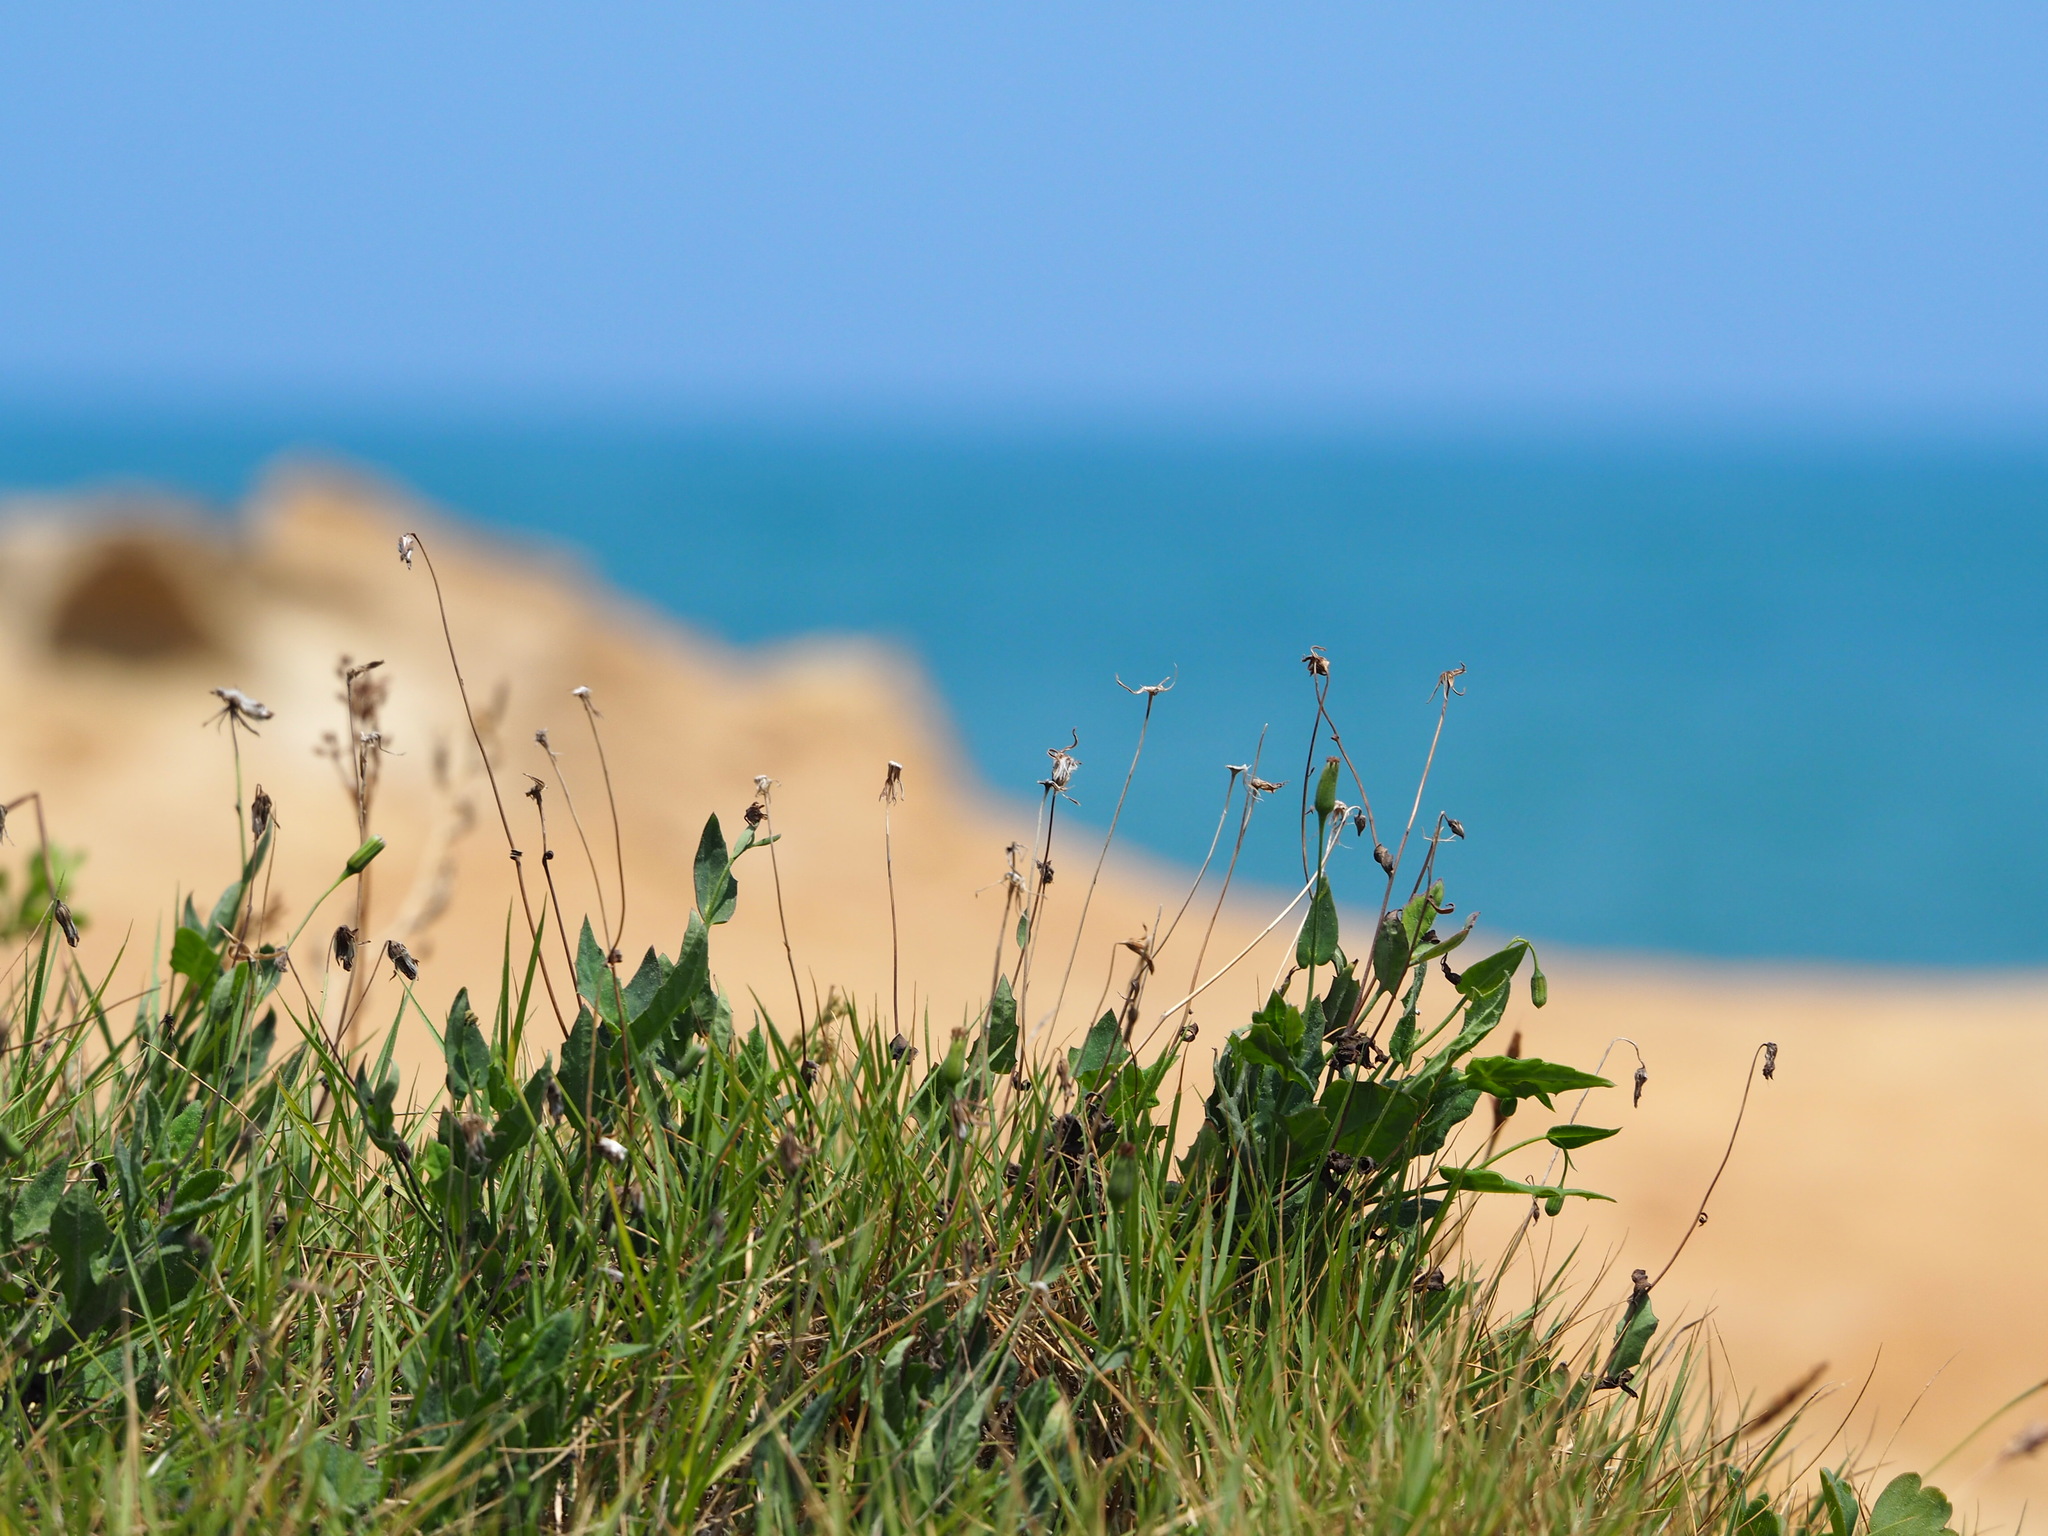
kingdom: Plantae
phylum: Tracheophyta
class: Magnoliopsida
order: Asterales
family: Asteraceae
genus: Emilia
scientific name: Emilia javanica
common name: Tassel-flower
